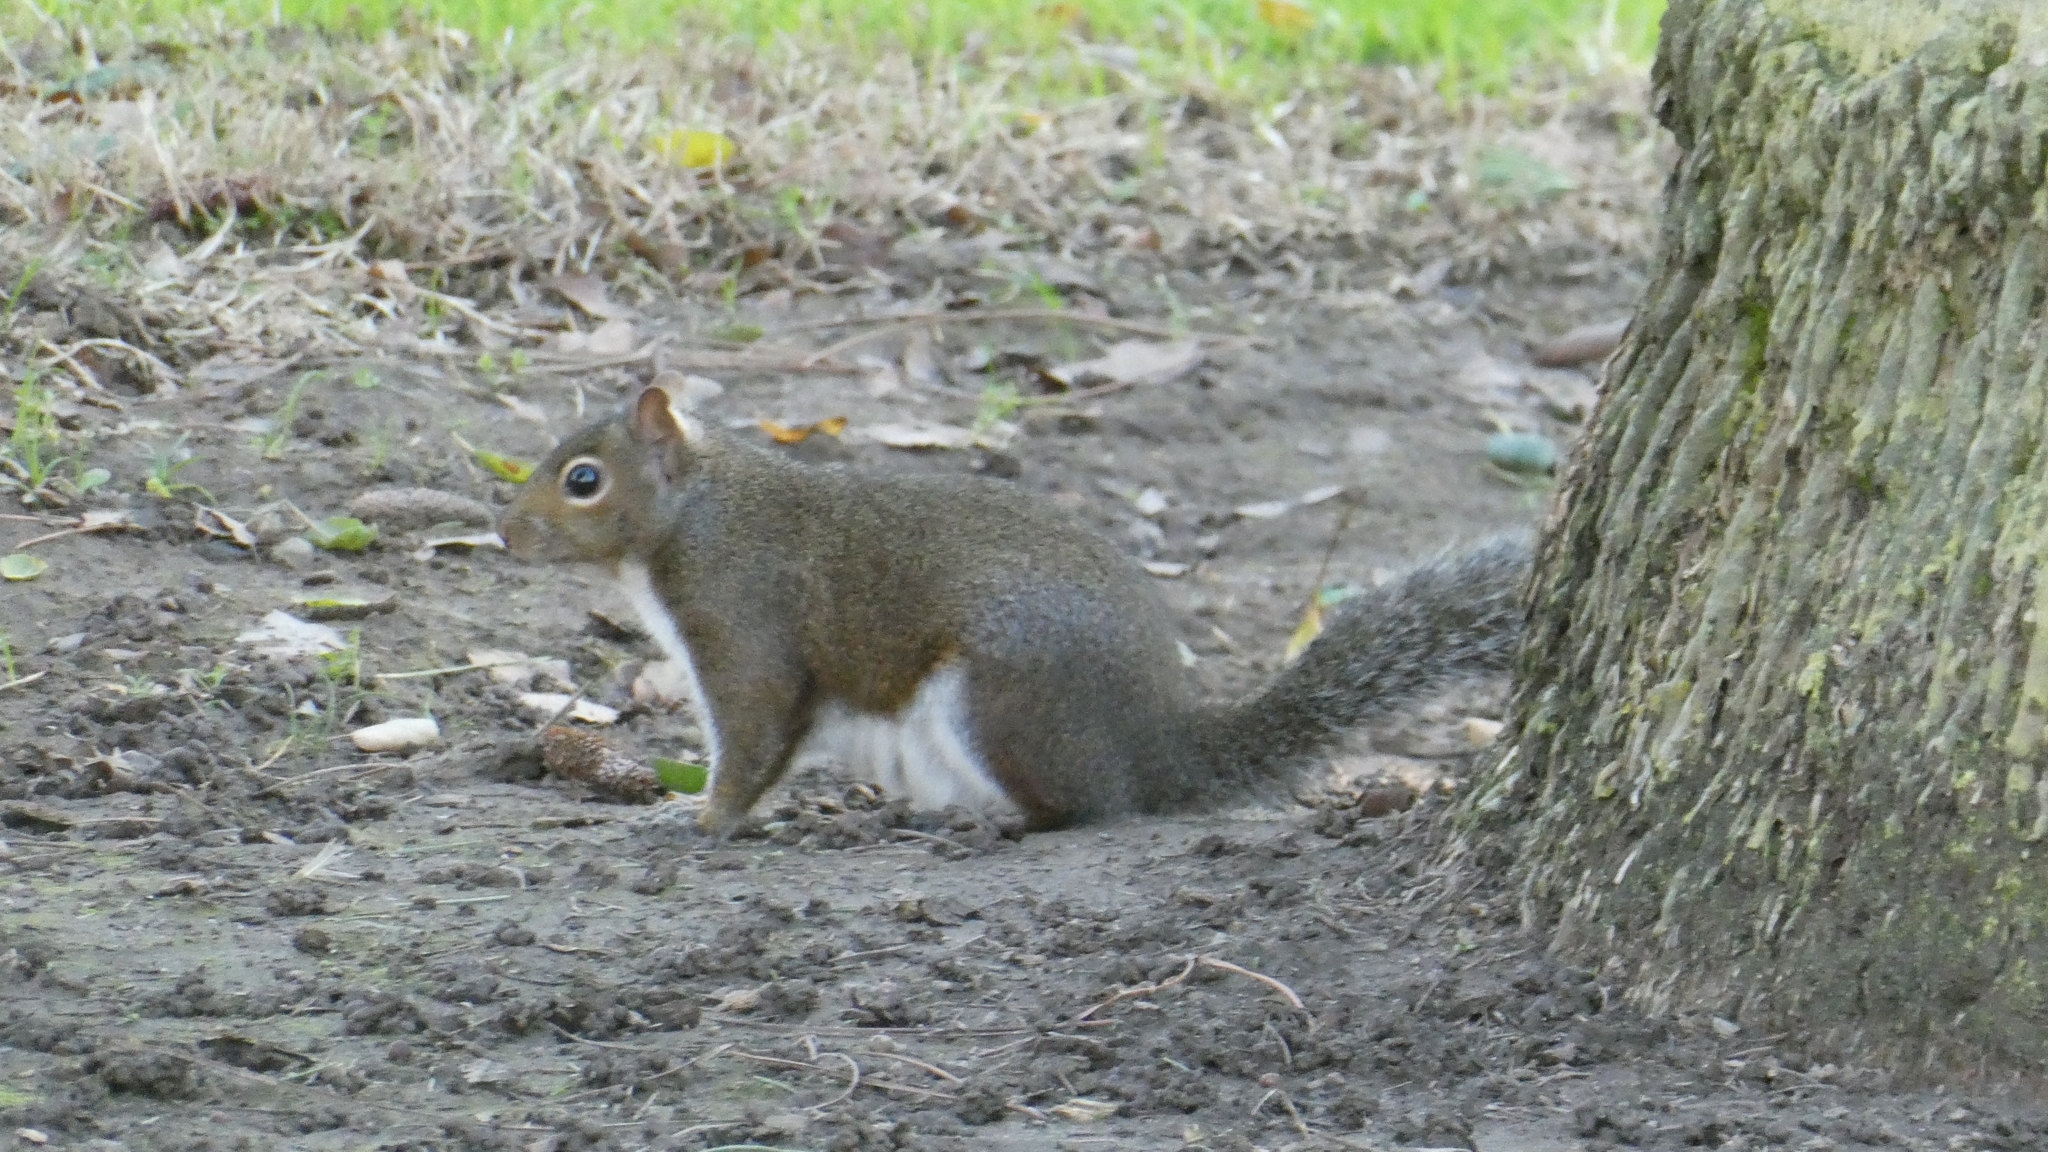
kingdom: Animalia
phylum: Chordata
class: Mammalia
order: Rodentia
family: Sciuridae
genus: Sciurus
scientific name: Sciurus carolinensis
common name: Eastern gray squirrel
